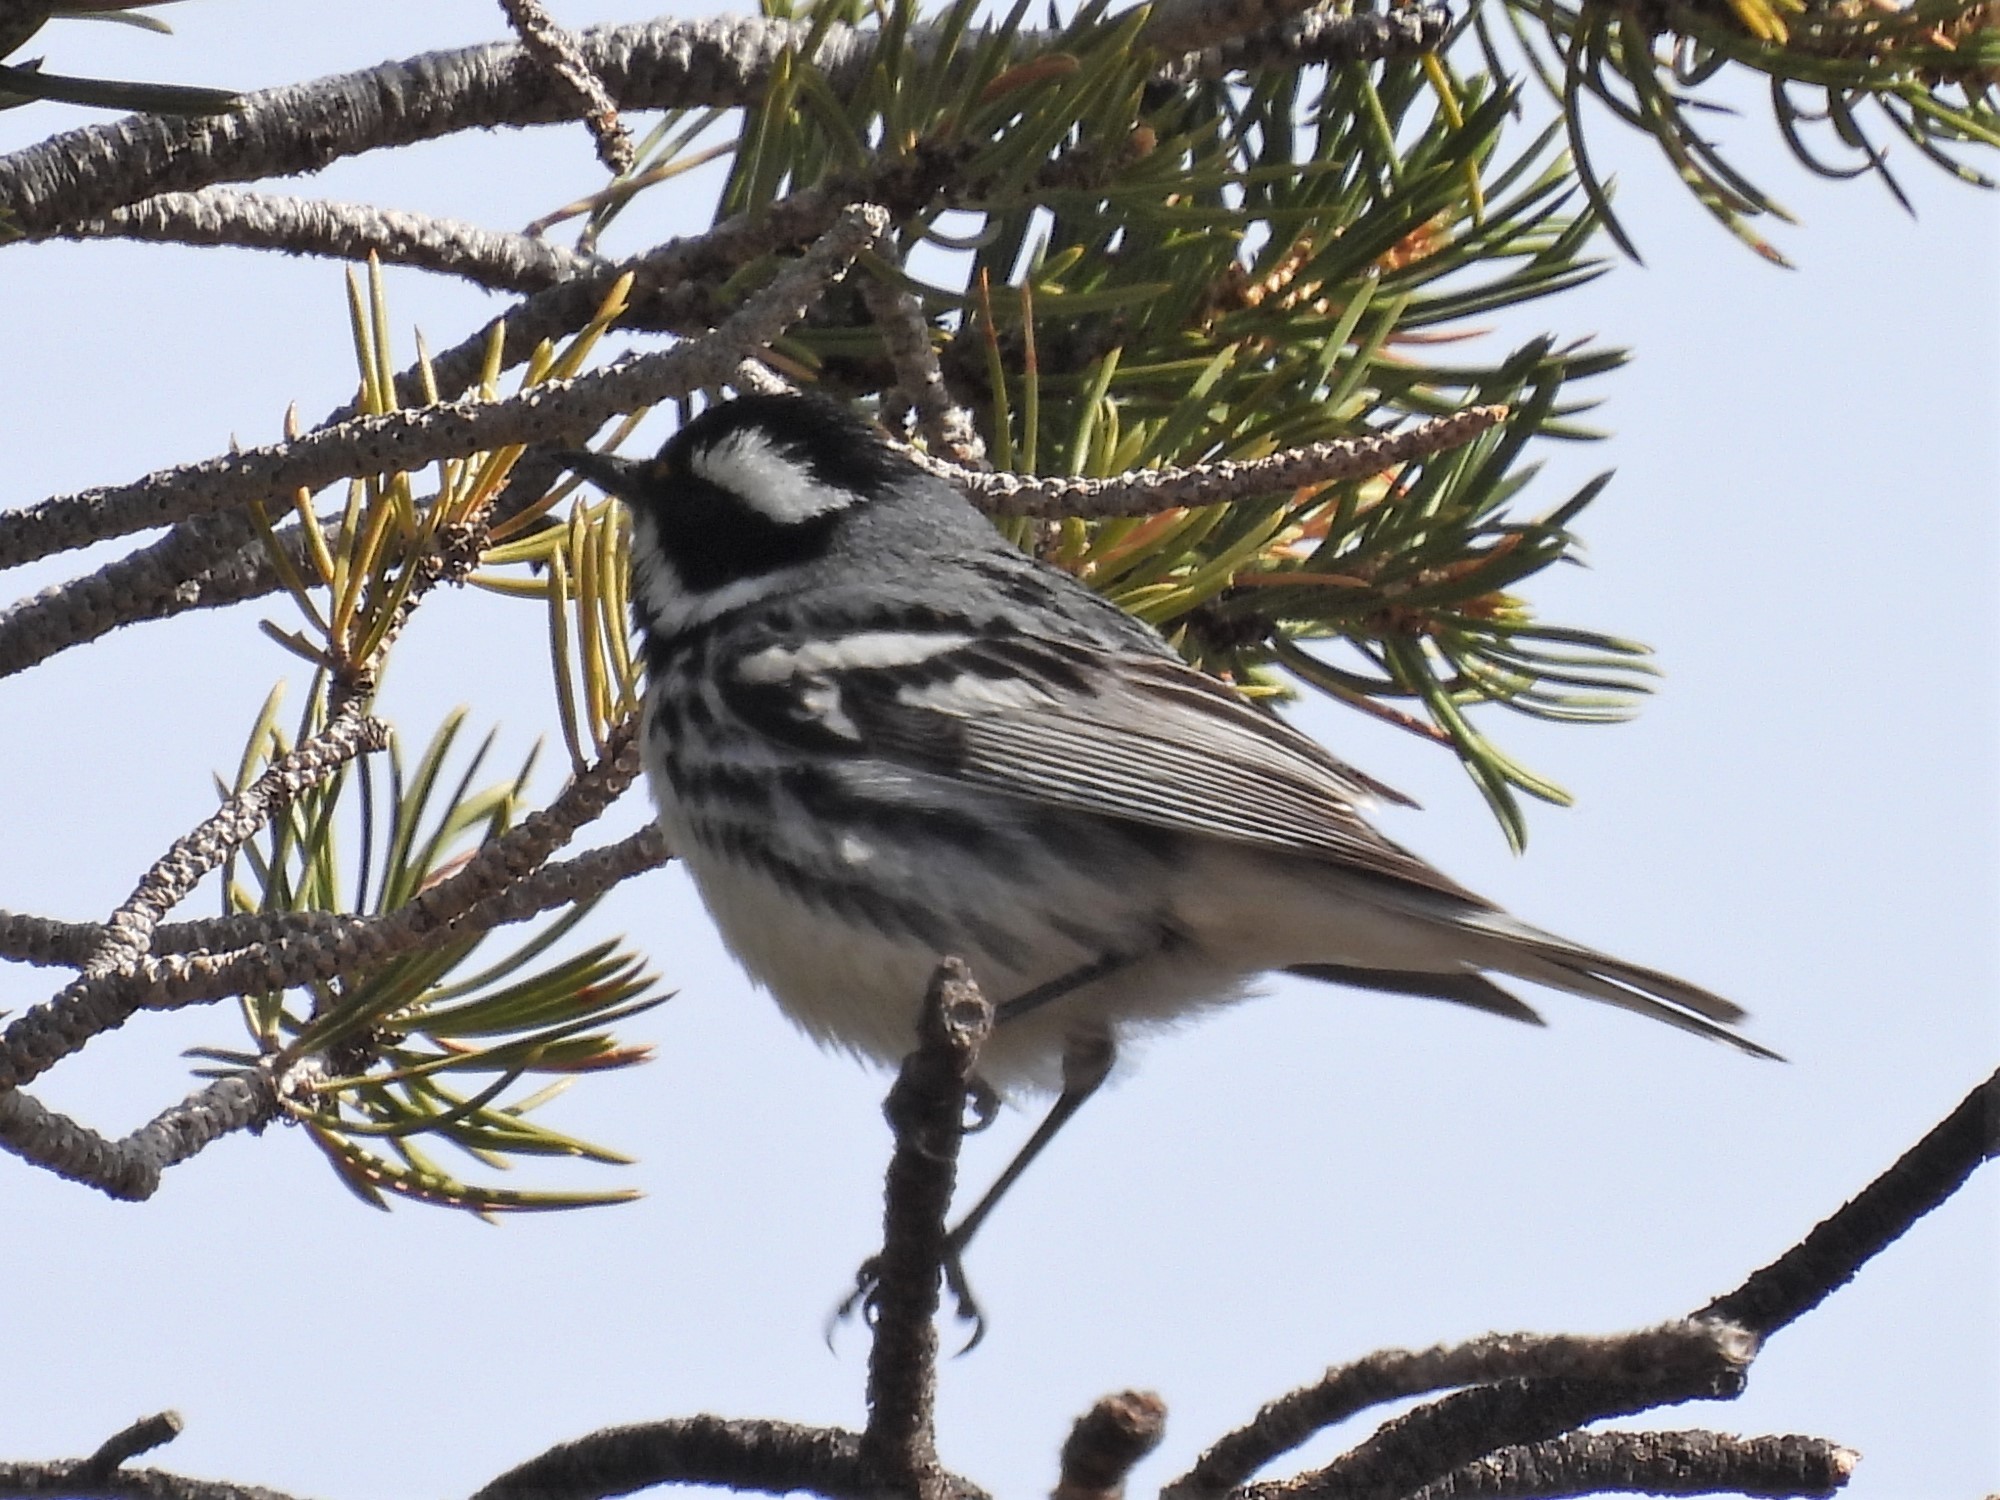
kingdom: Animalia
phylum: Chordata
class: Aves
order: Passeriformes
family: Parulidae
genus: Setophaga
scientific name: Setophaga nigrescens
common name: Black-throated gray warbler
